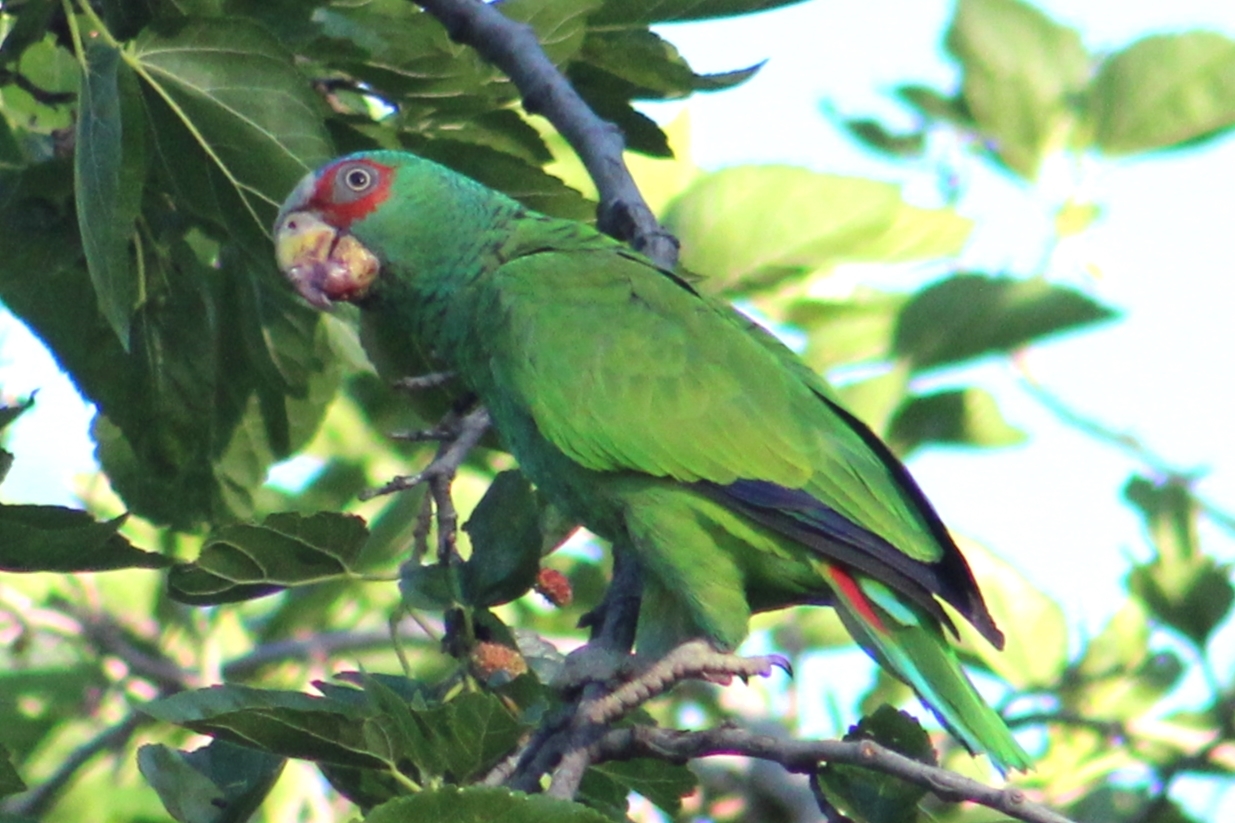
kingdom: Animalia
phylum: Chordata
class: Aves
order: Psittaciformes
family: Psittacidae
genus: Amazona
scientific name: Amazona albifrons
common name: White-fronted amazon
